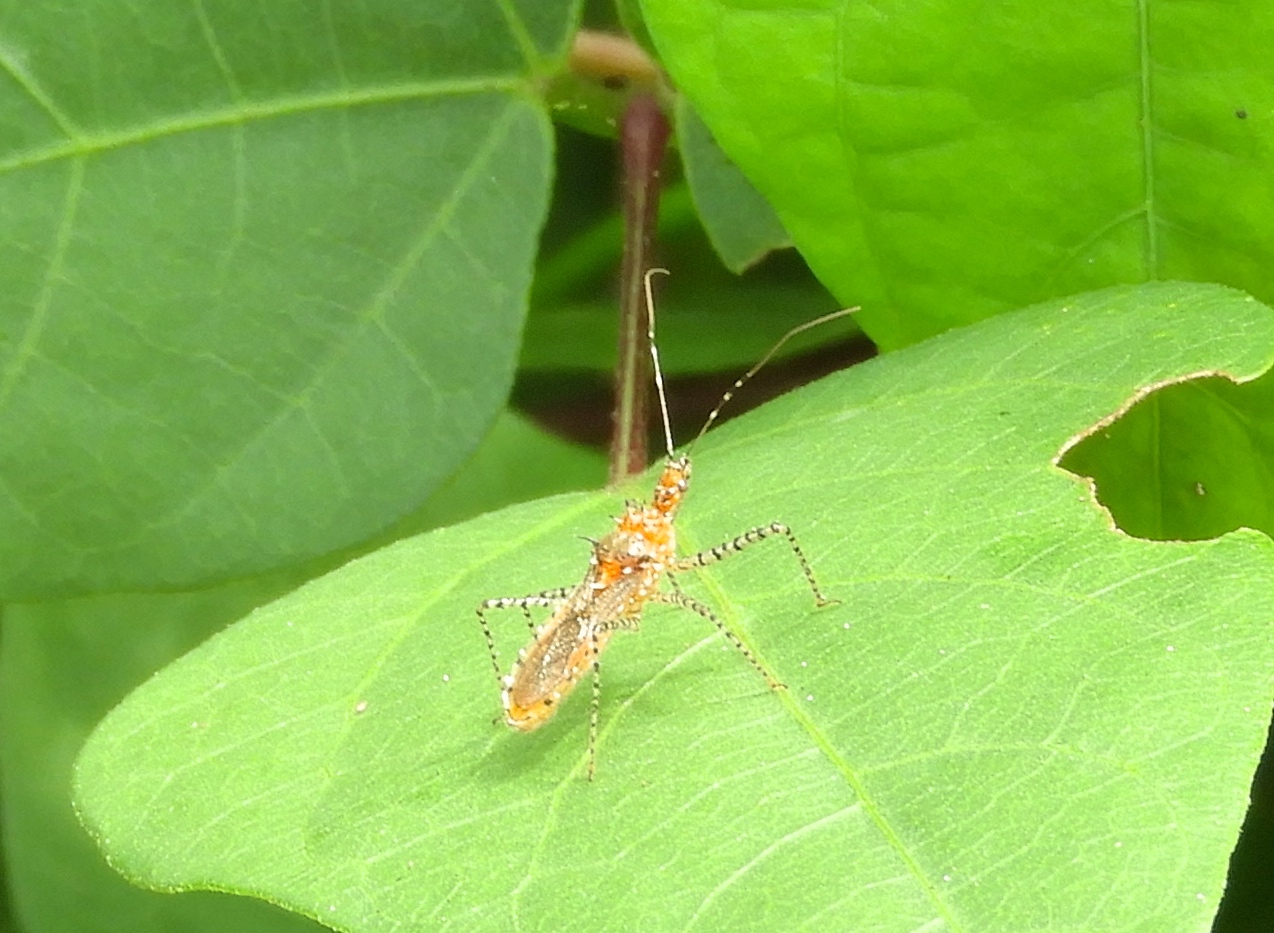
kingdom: Animalia
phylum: Arthropoda
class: Insecta
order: Hemiptera
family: Reduviidae
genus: Pselliopus
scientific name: Pselliopus
